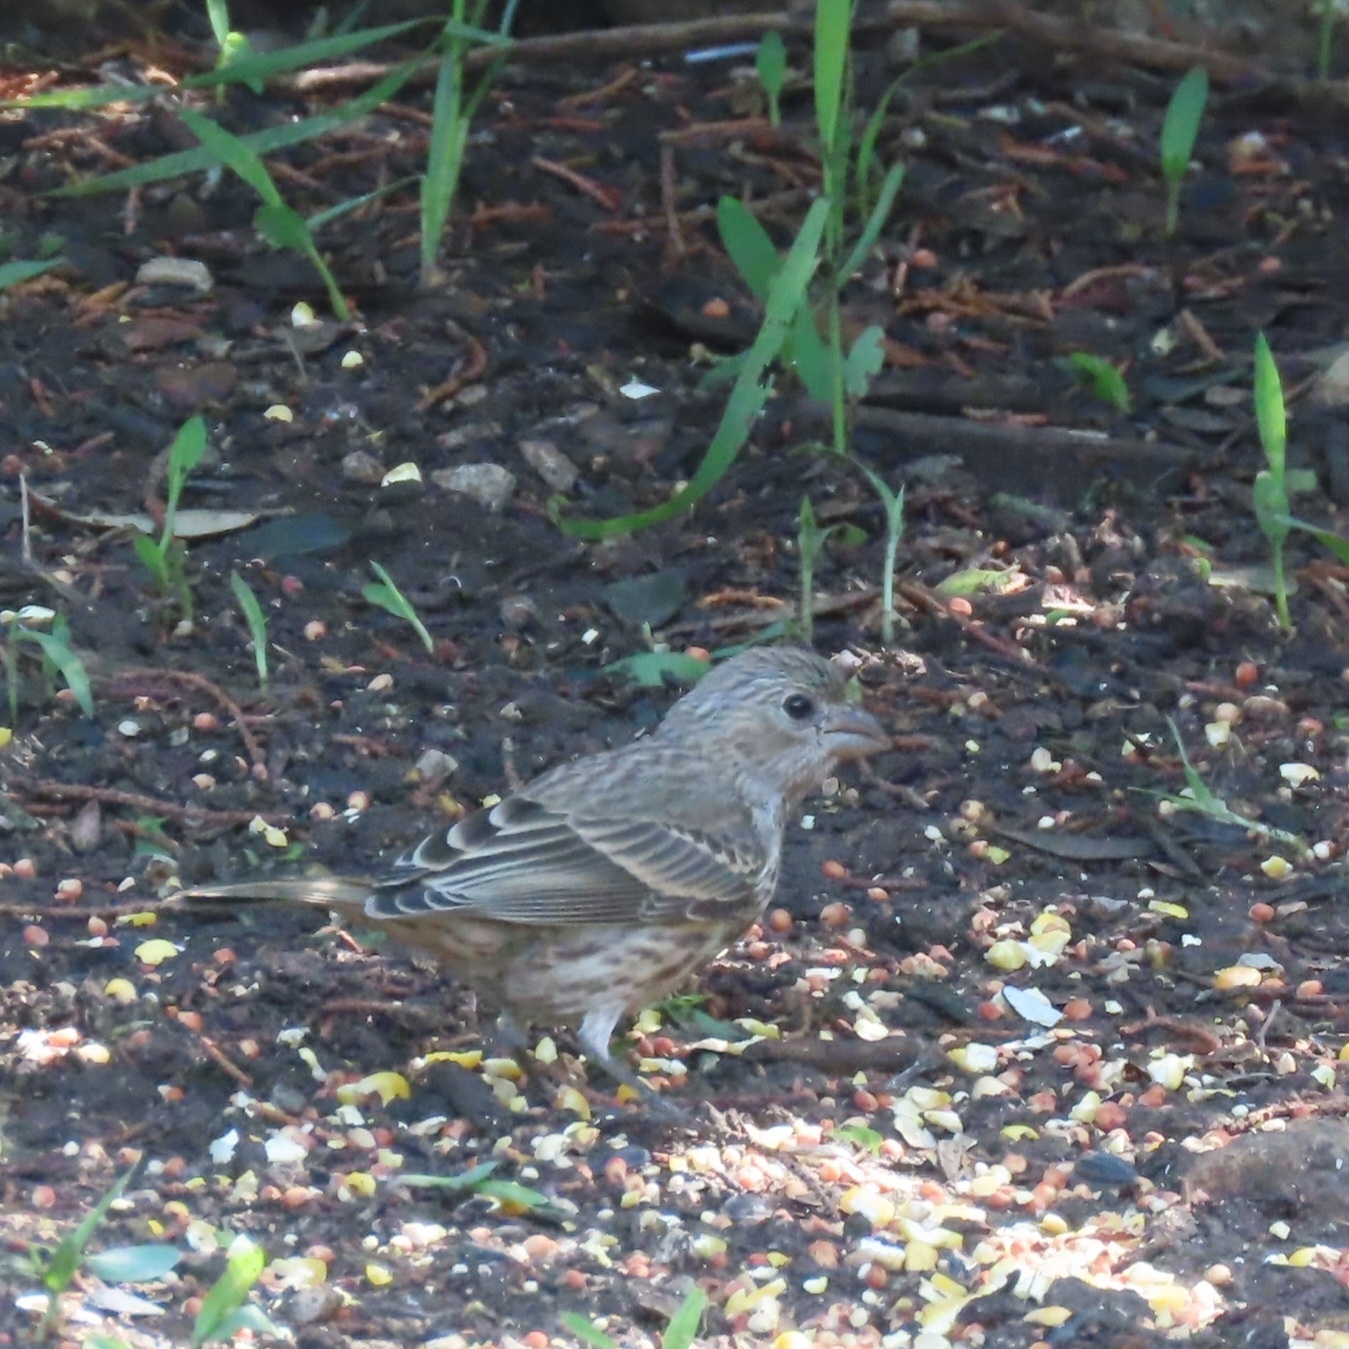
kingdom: Animalia
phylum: Chordata
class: Aves
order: Passeriformes
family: Fringillidae
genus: Haemorhous
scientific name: Haemorhous mexicanus
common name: House finch
